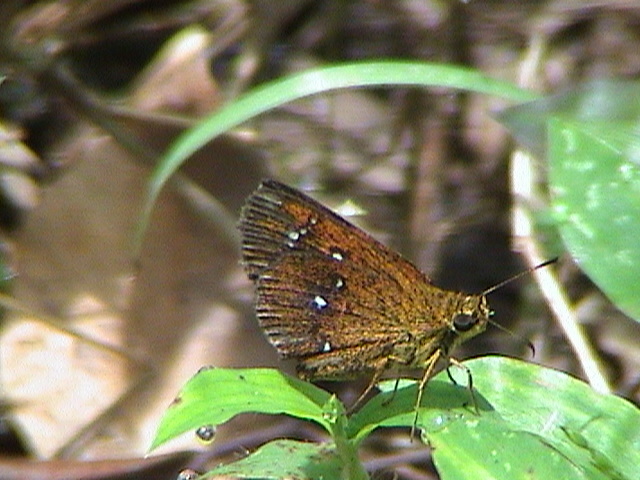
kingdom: Animalia
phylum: Arthropoda
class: Insecta
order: Lepidoptera
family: Hesperiidae
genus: Iambrix
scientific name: Iambrix salsala
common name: Chestnut bob
